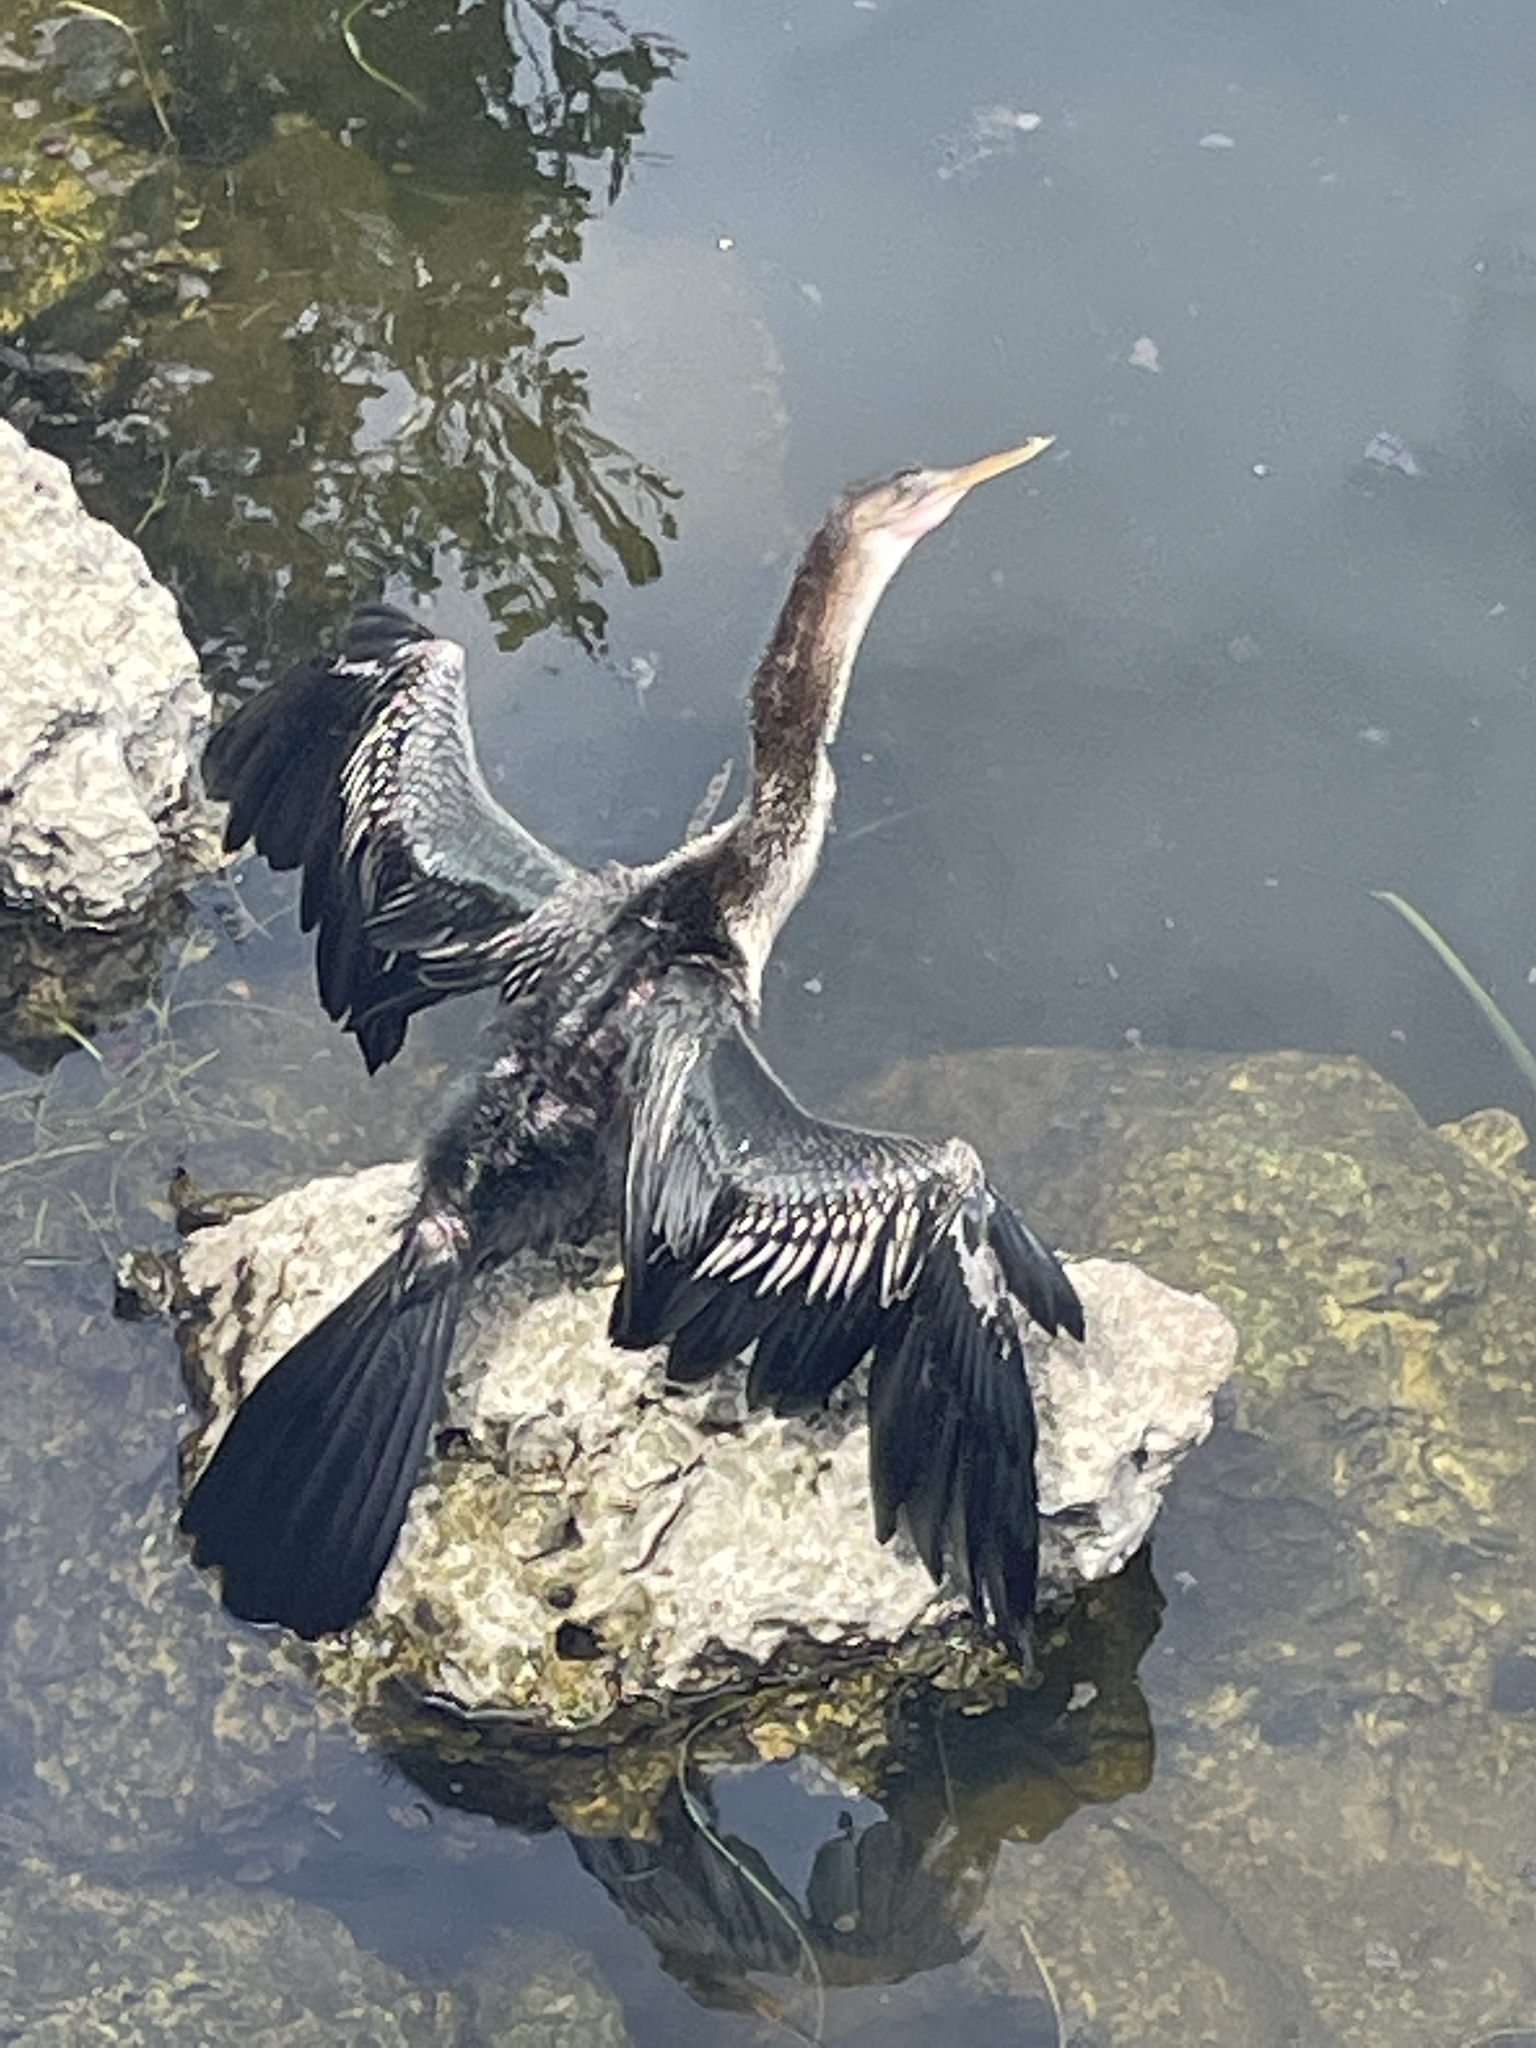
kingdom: Animalia
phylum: Chordata
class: Aves
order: Suliformes
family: Anhingidae
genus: Anhinga
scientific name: Anhinga anhinga
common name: Anhinga
